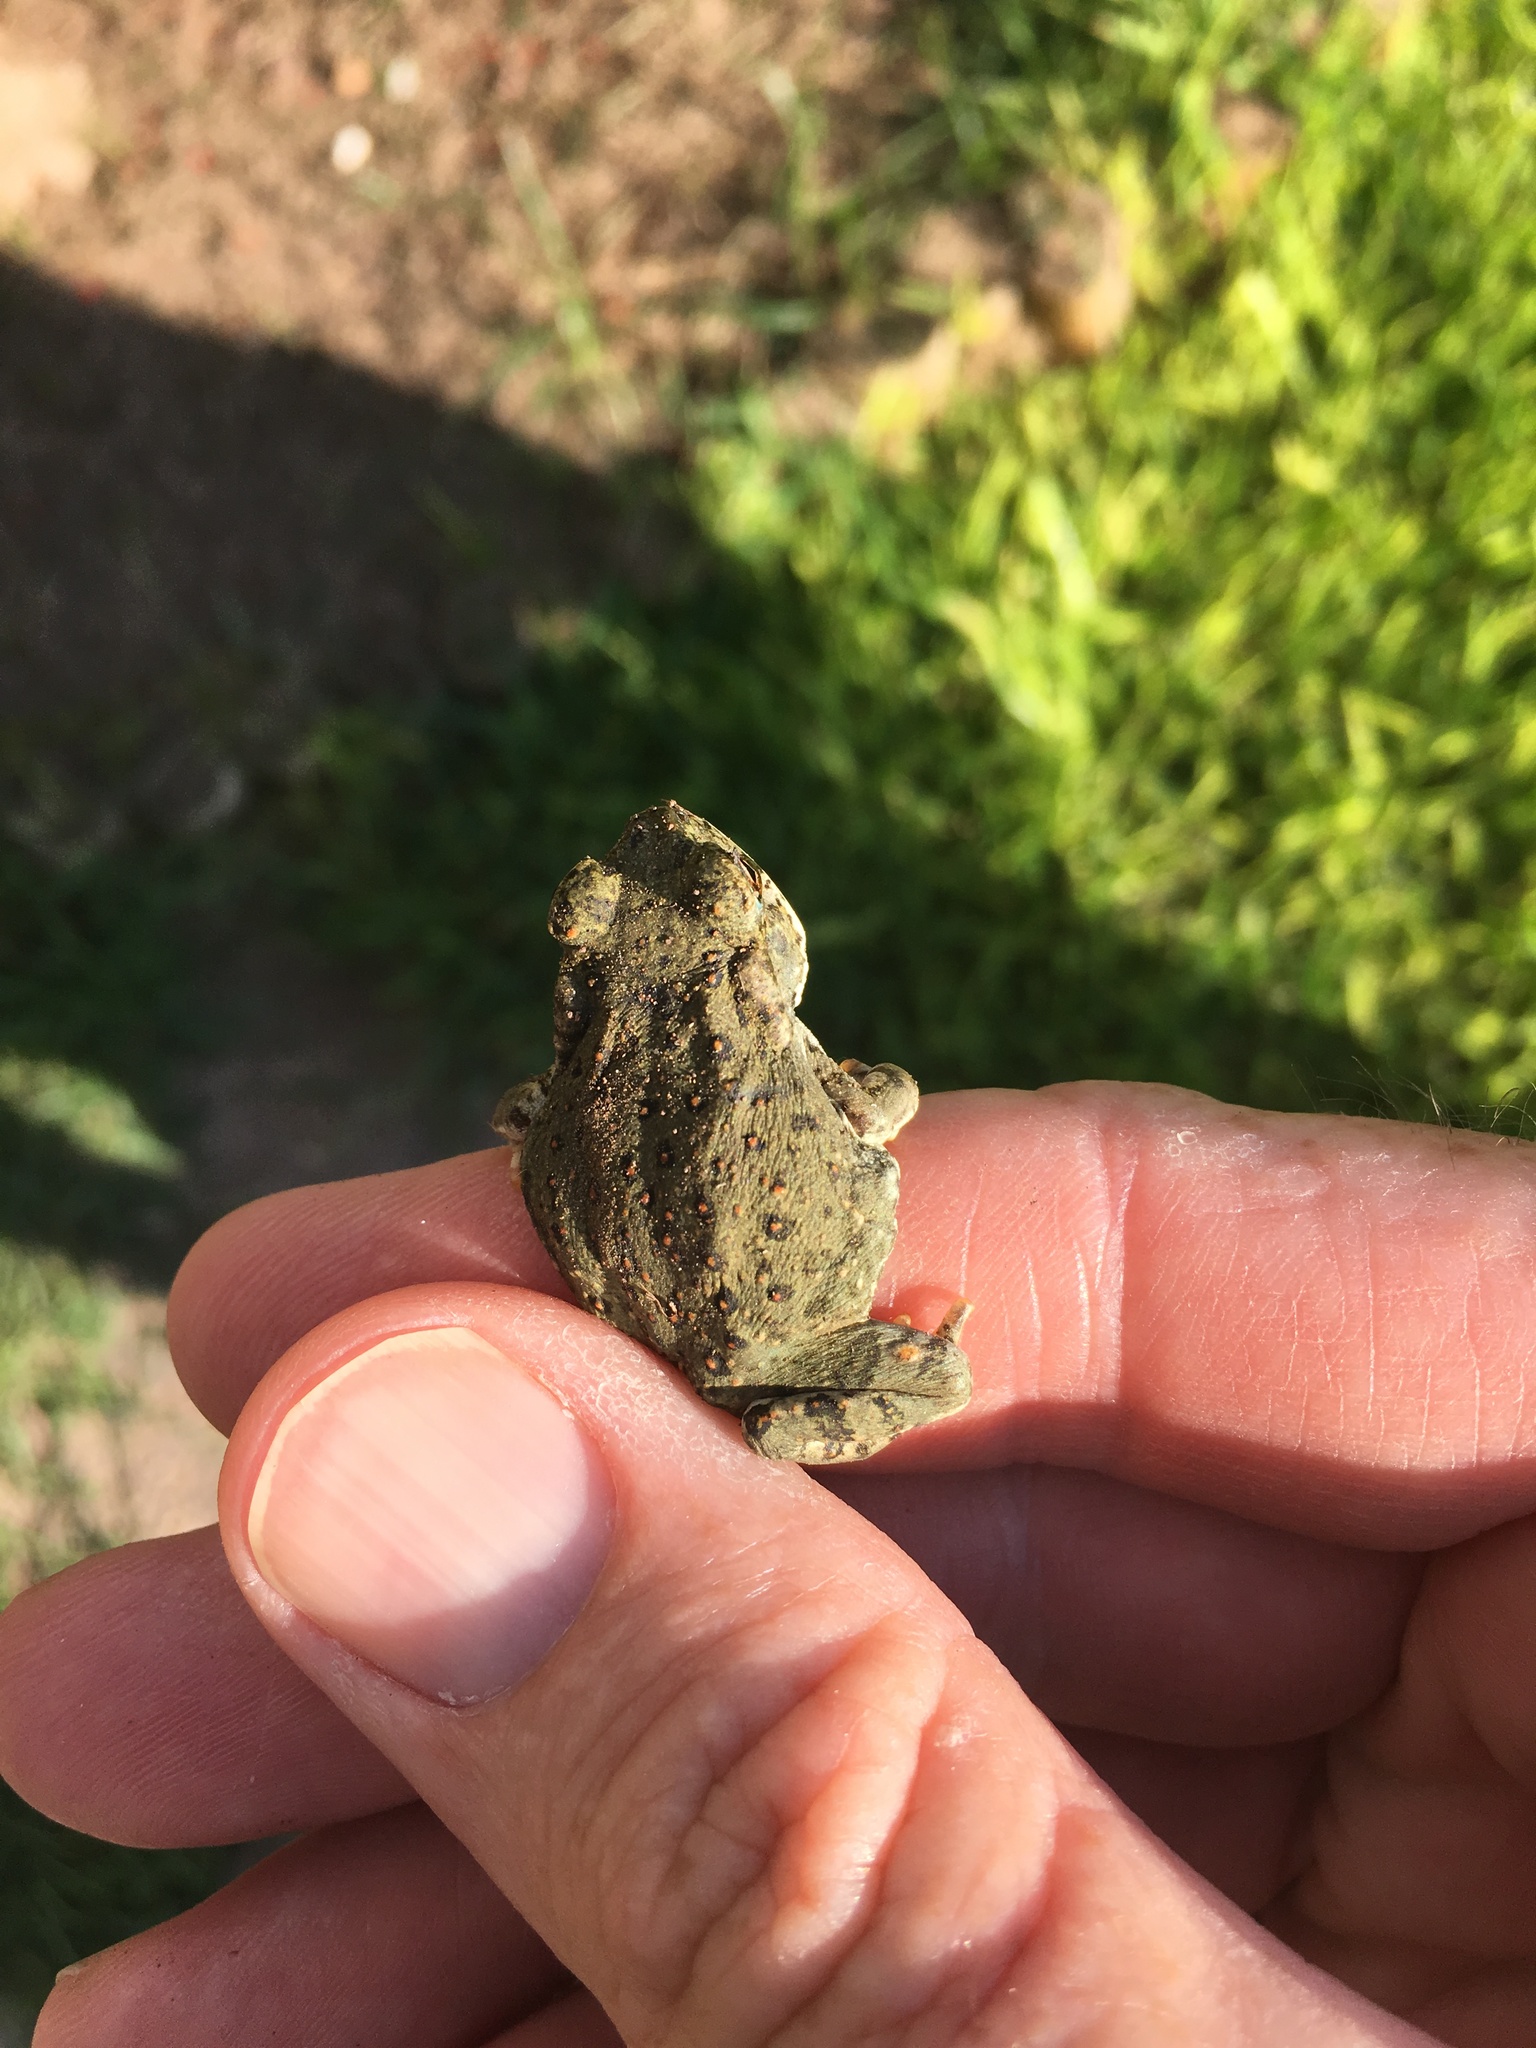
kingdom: Animalia
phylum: Chordata
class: Amphibia
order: Anura
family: Bufonidae
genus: Anaxyrus
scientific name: Anaxyrus punctatus
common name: Red-spotted toad
